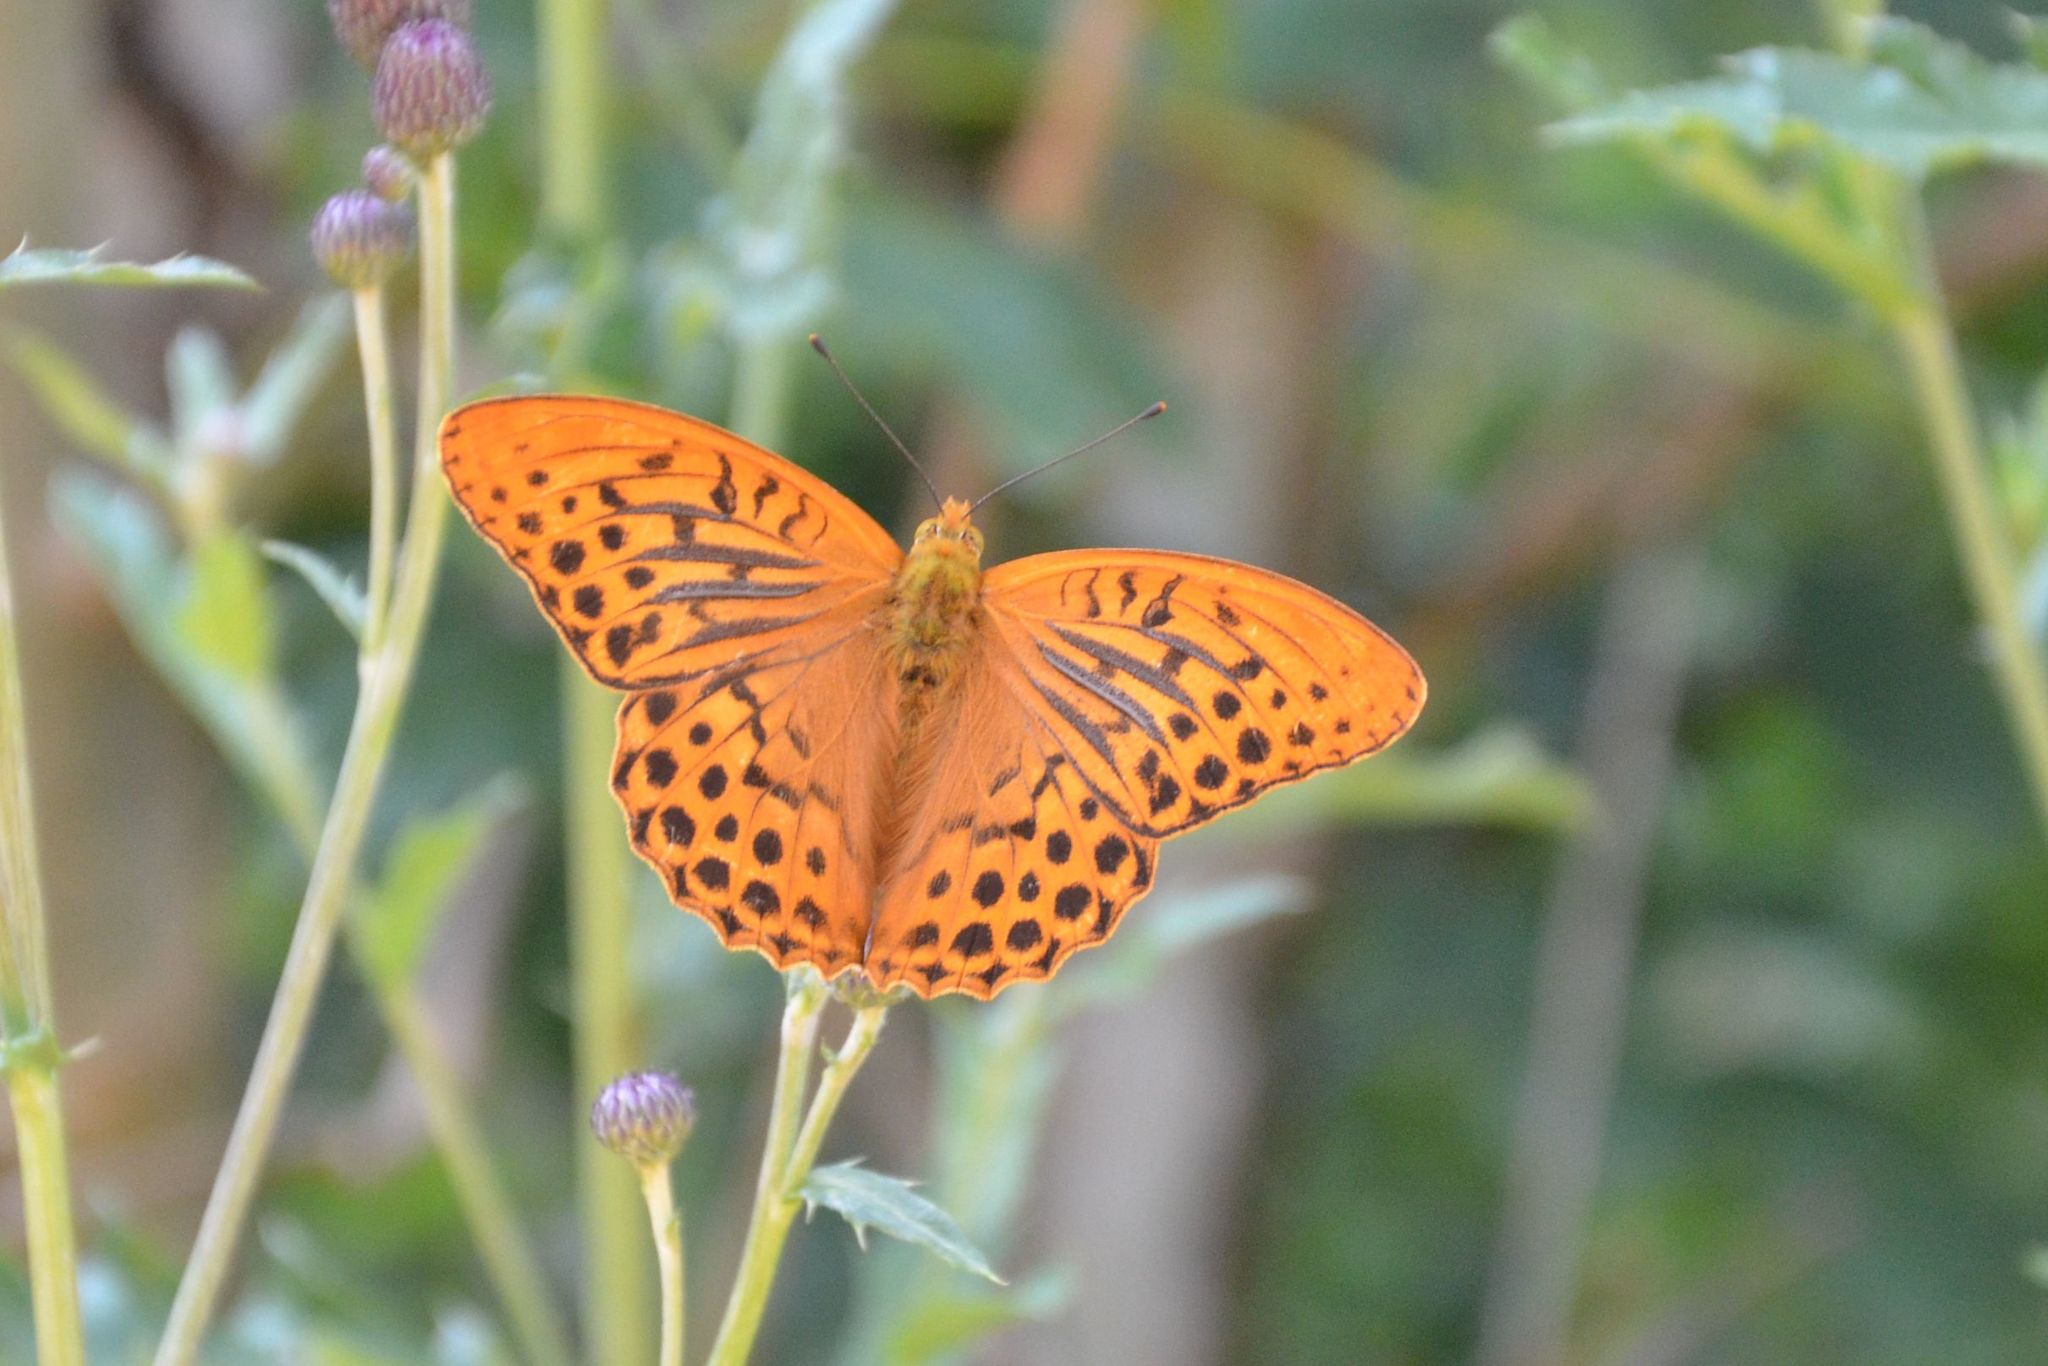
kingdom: Animalia
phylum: Arthropoda
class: Insecta
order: Lepidoptera
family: Nymphalidae
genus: Argynnis
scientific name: Argynnis paphia
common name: Silver-washed fritillary
